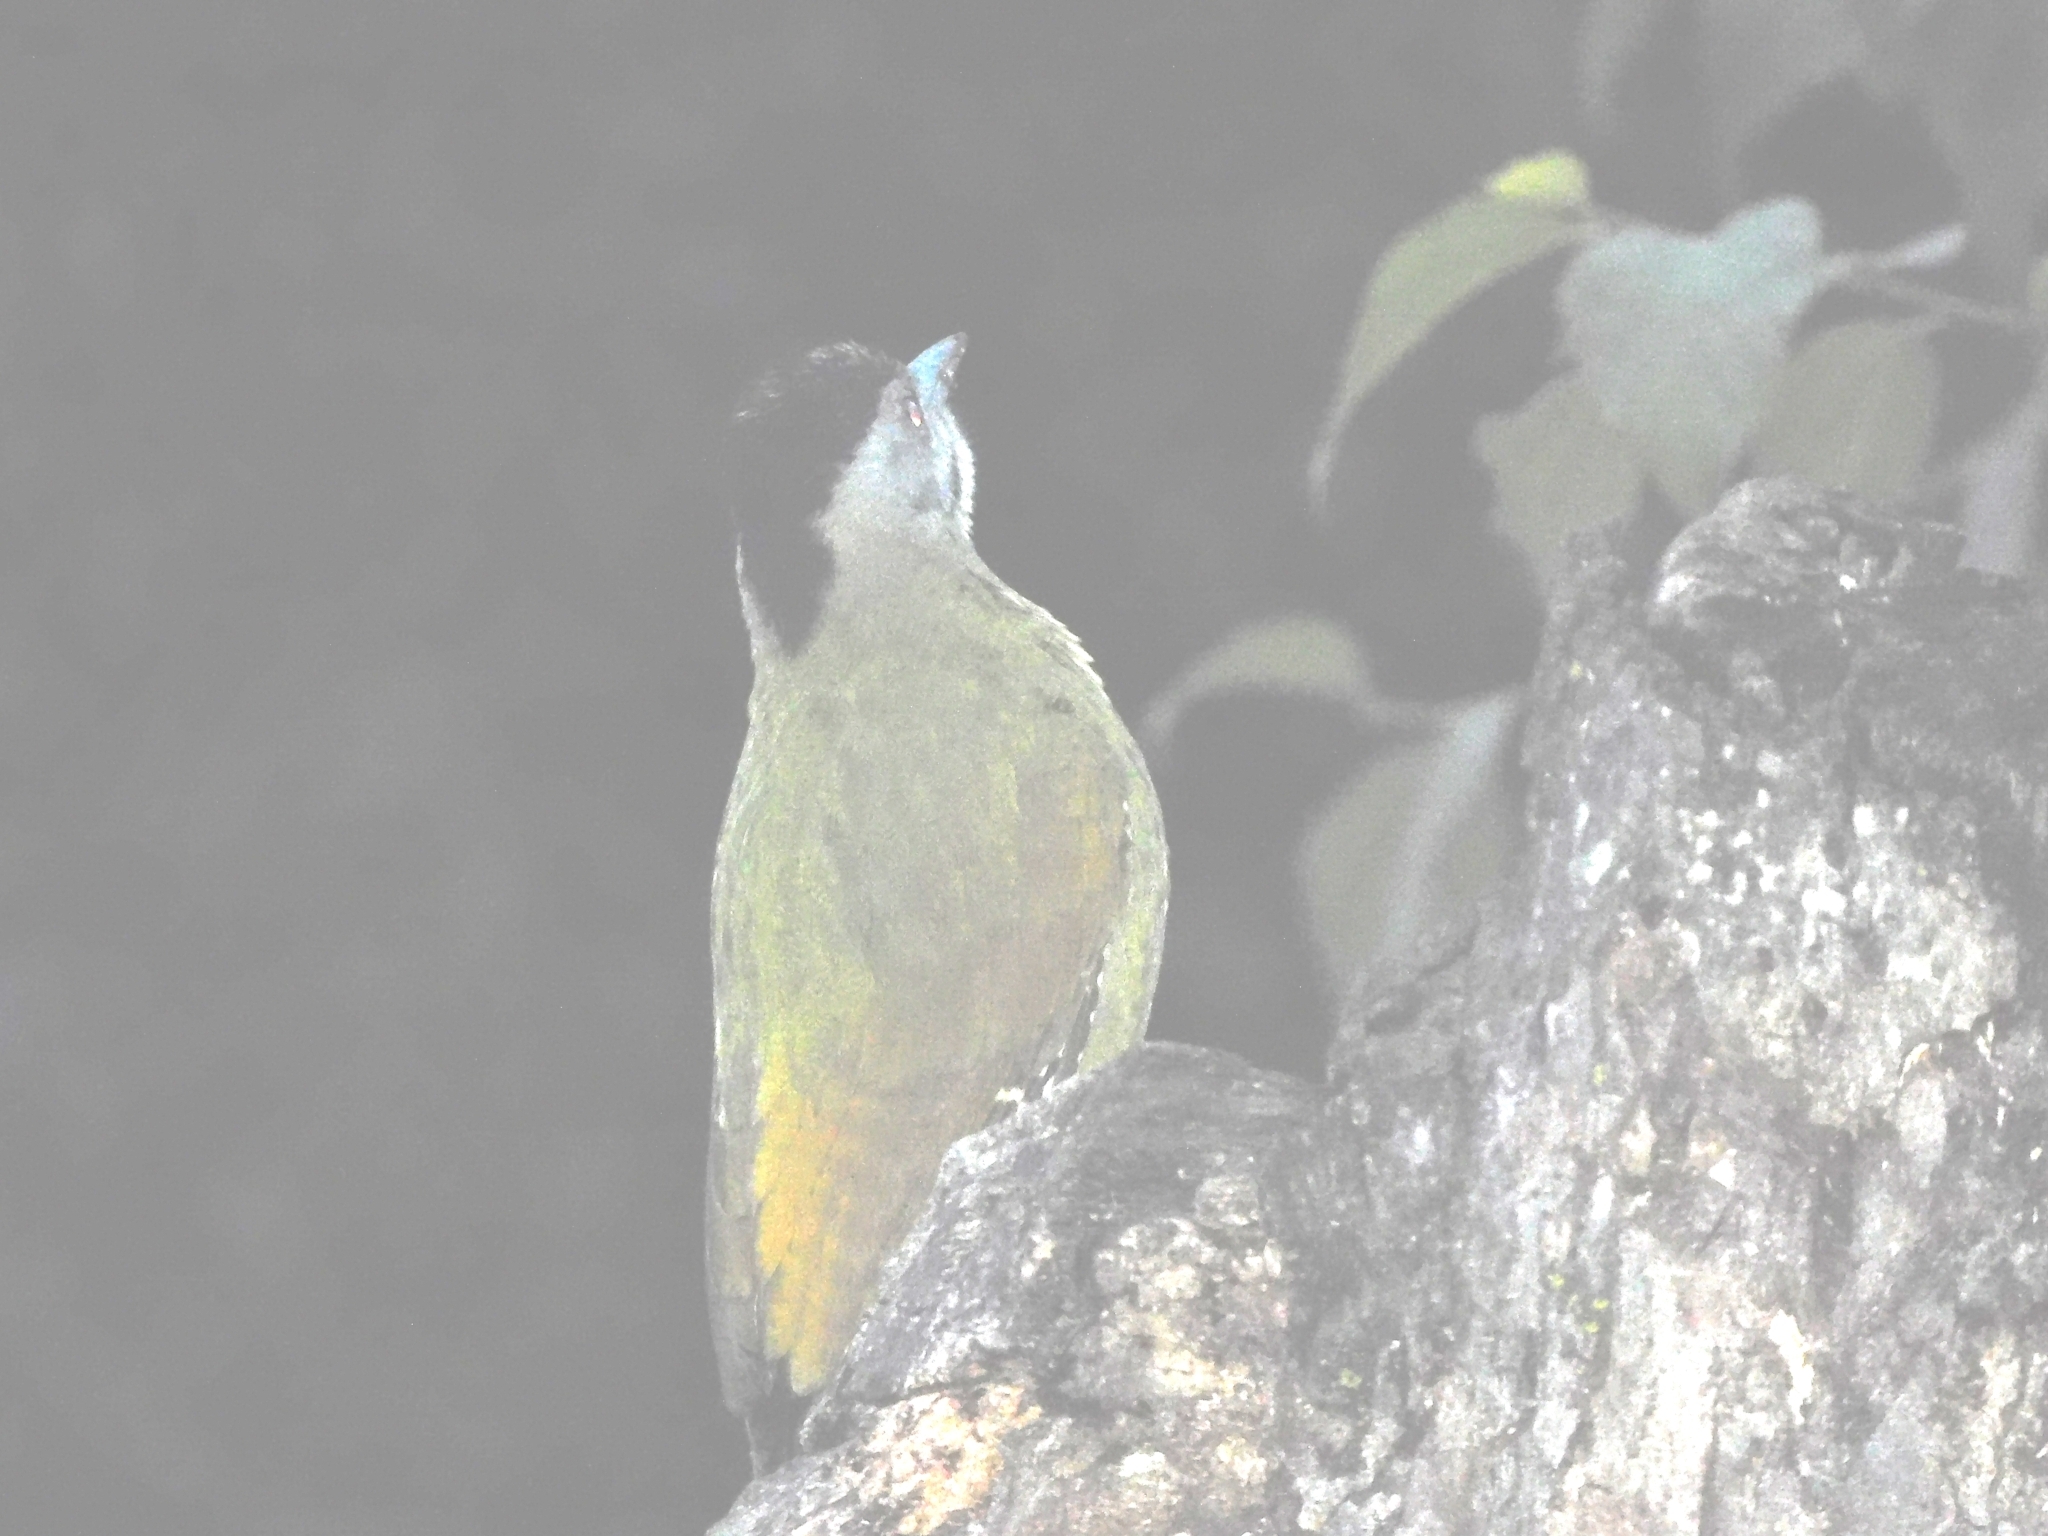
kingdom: Animalia
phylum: Chordata
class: Aves
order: Piciformes
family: Picidae
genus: Picus
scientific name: Picus canus
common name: Grey-headed woodpecker
